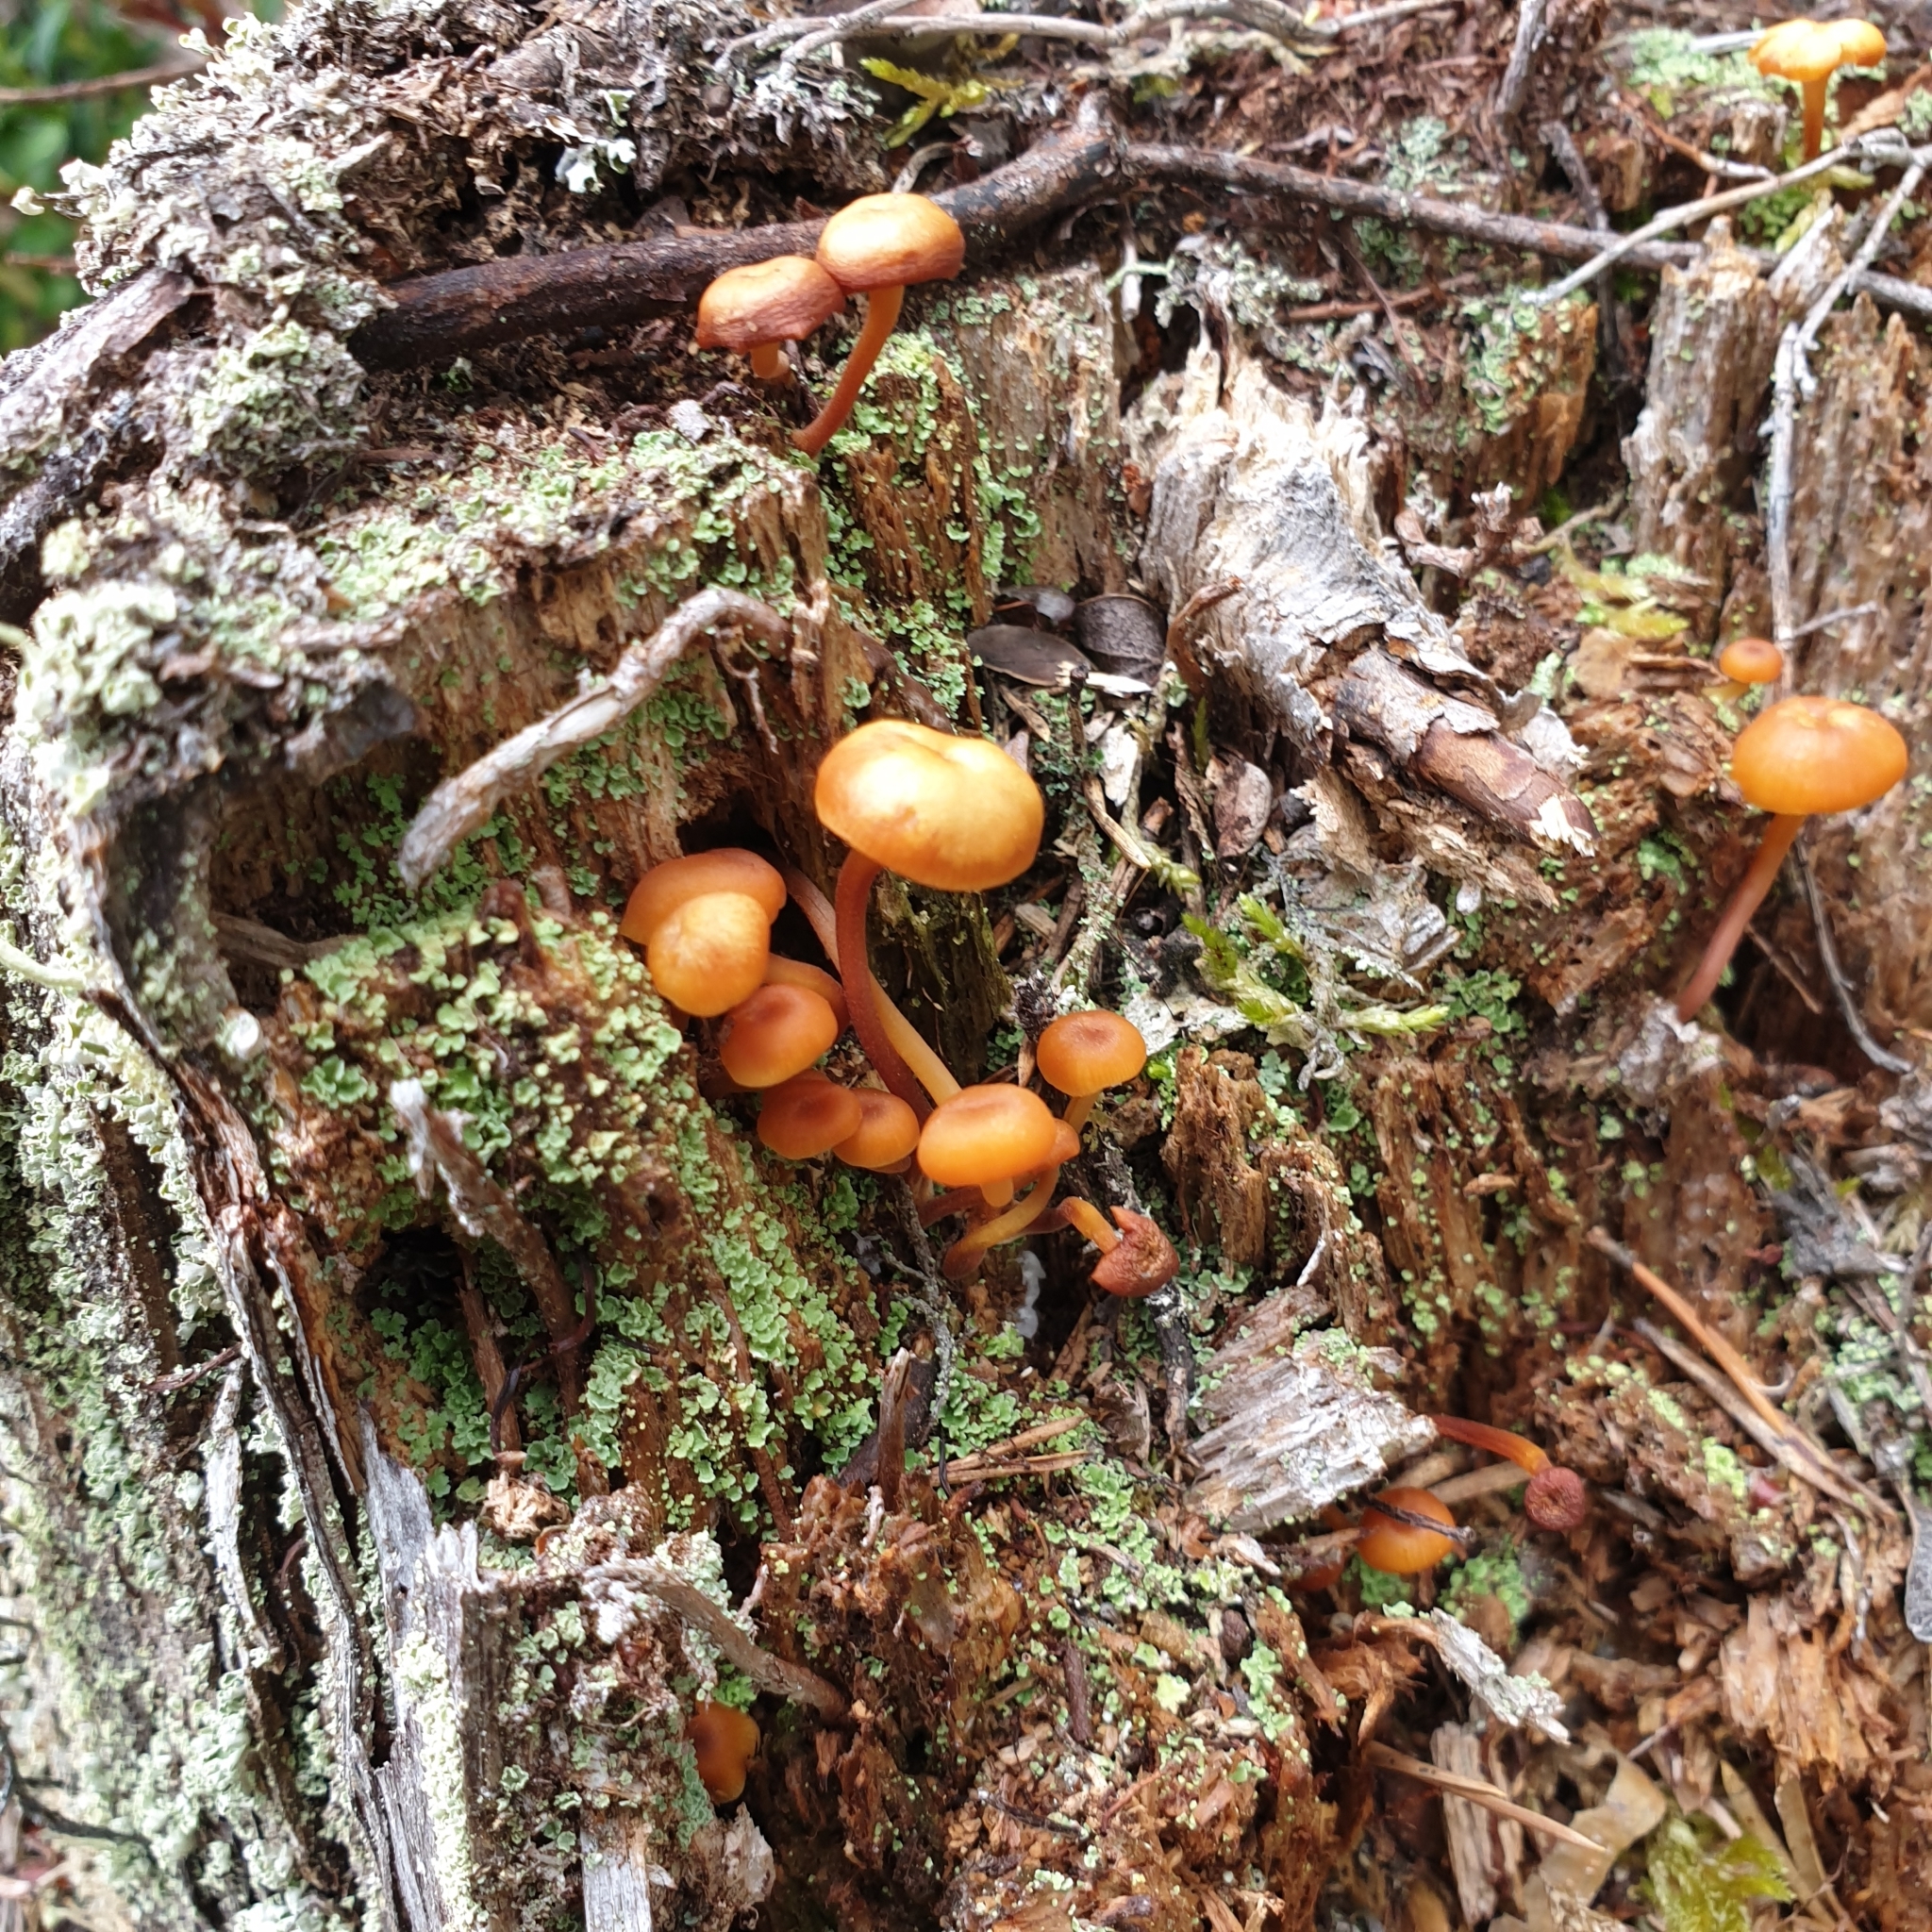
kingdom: Fungi
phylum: Basidiomycota
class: Agaricomycetes
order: Agaricales
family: Mycenaceae
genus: Xeromphalina
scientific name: Xeromphalina campanella
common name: Pinewood gingertail
